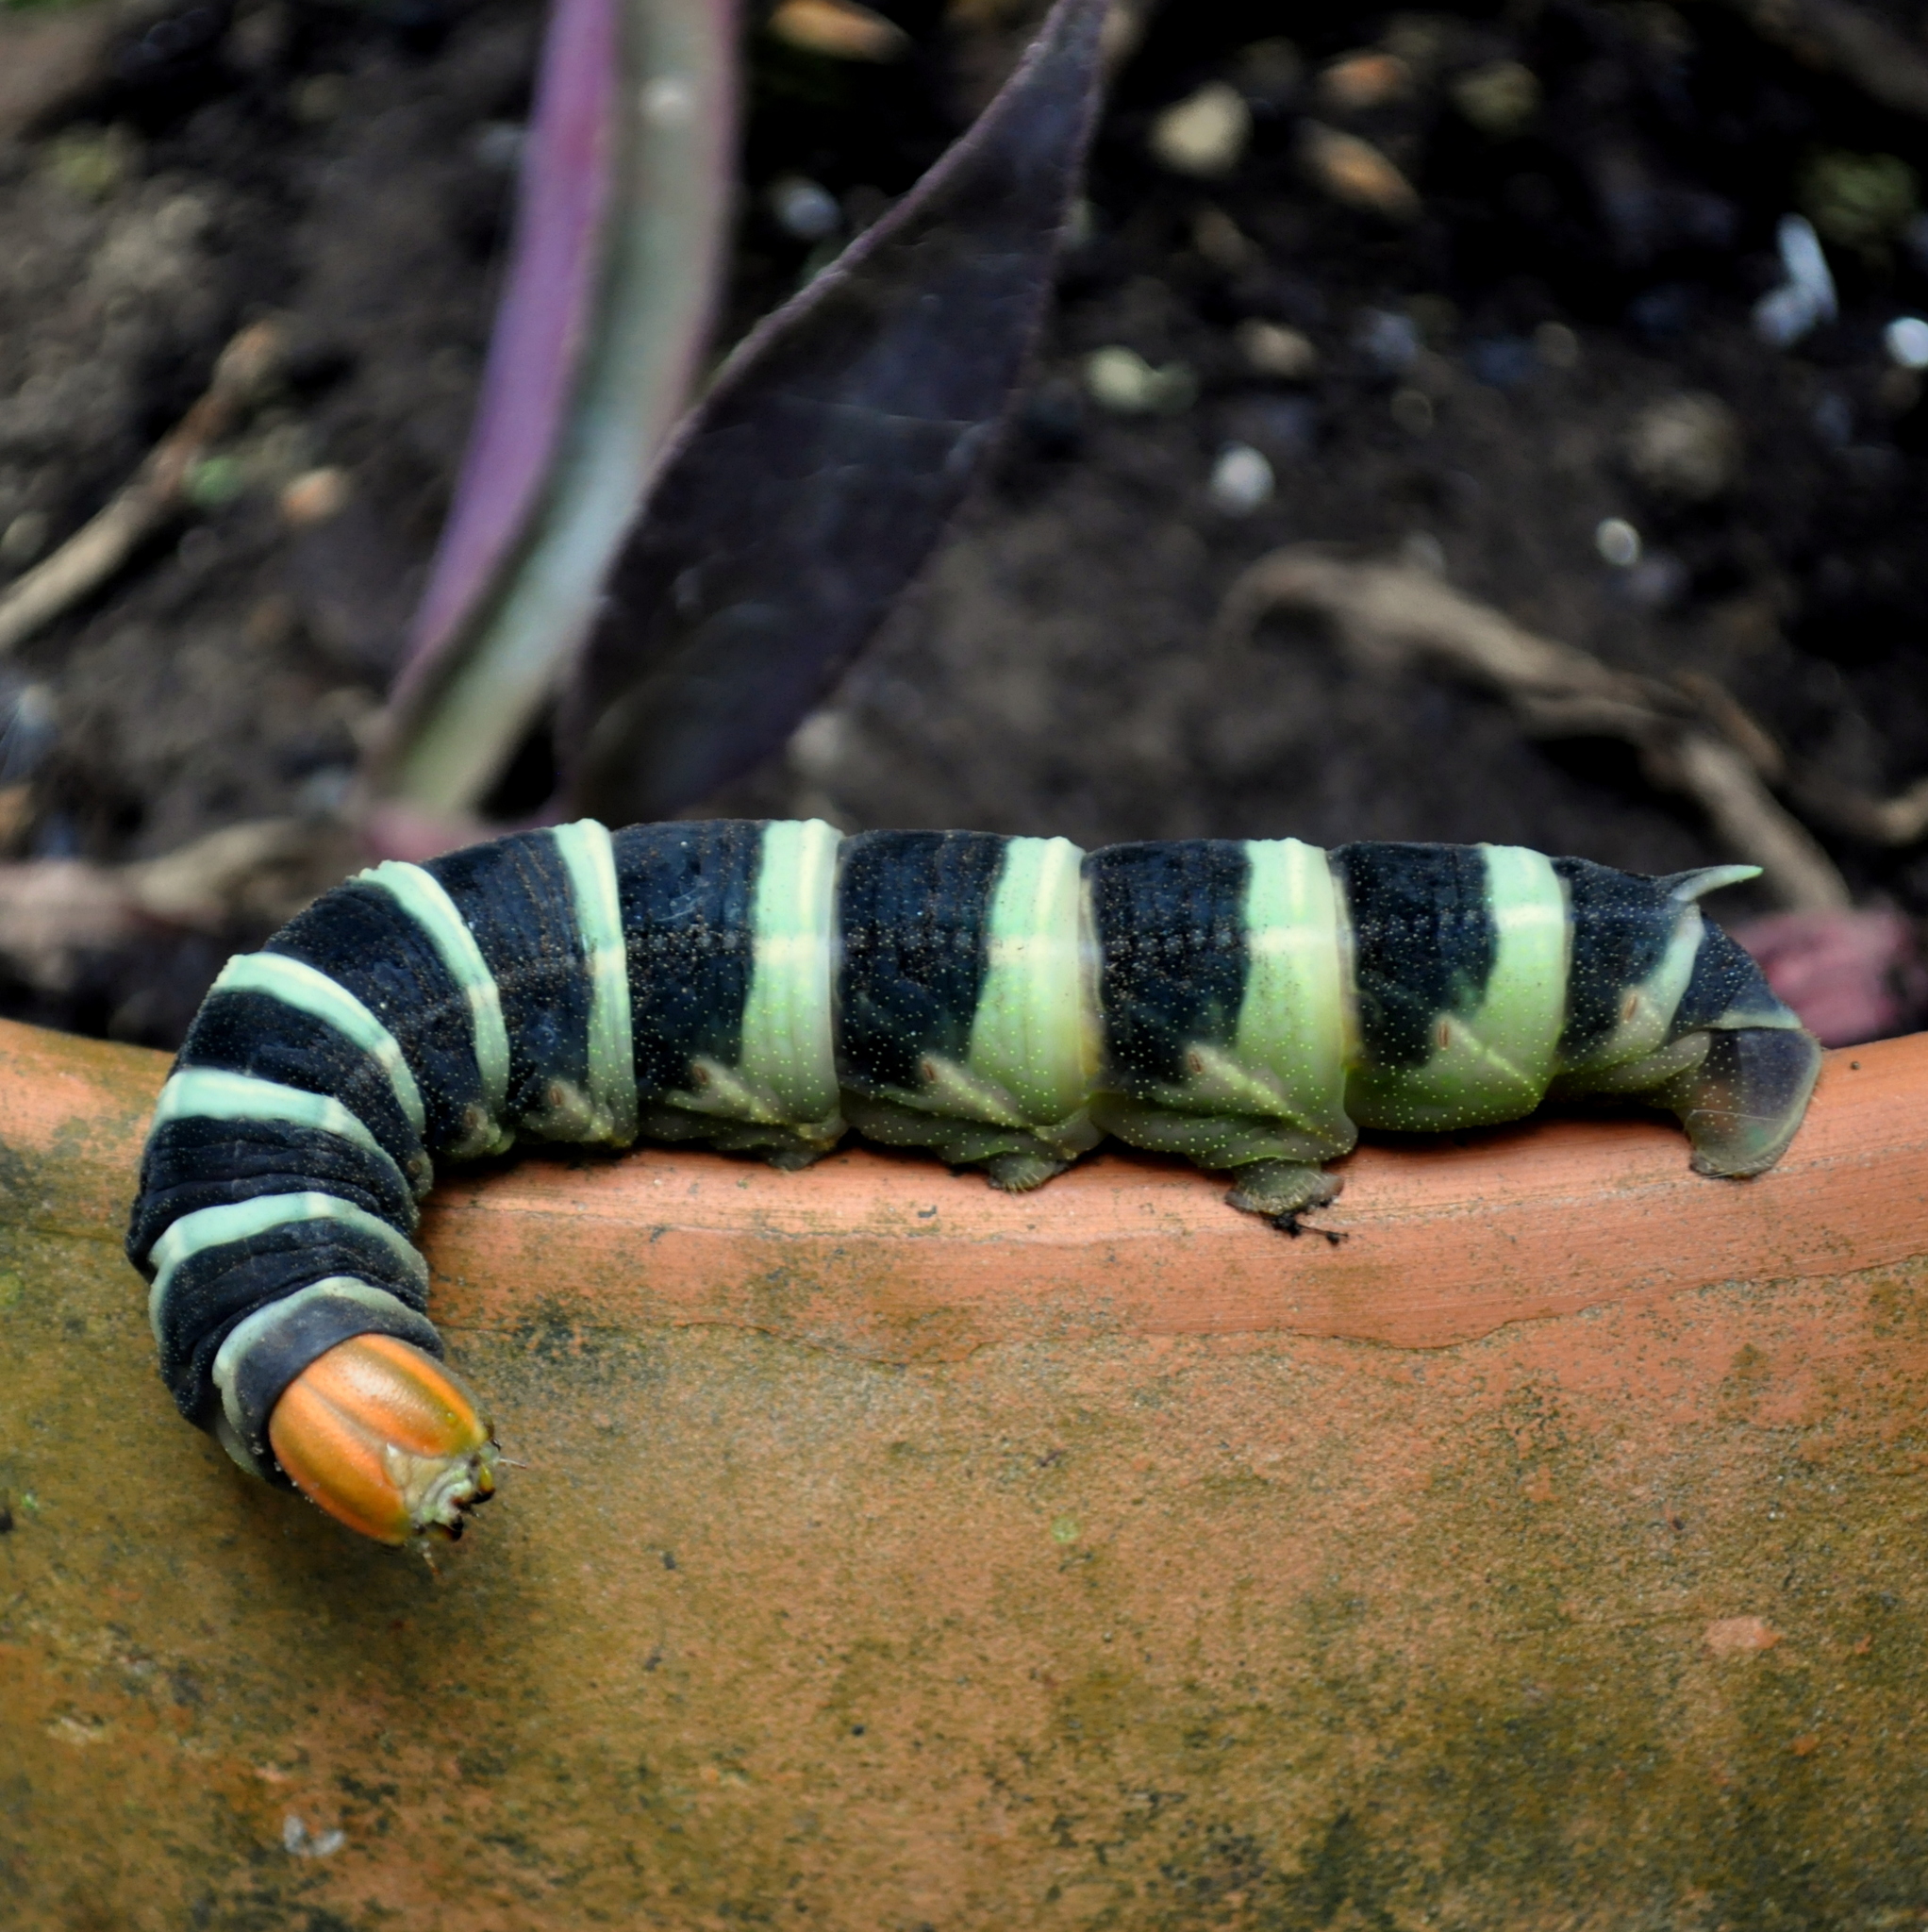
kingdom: Animalia
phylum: Arthropoda
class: Insecta
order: Lepidoptera
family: Sphingidae
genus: Pachylia
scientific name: Pachylia syces
